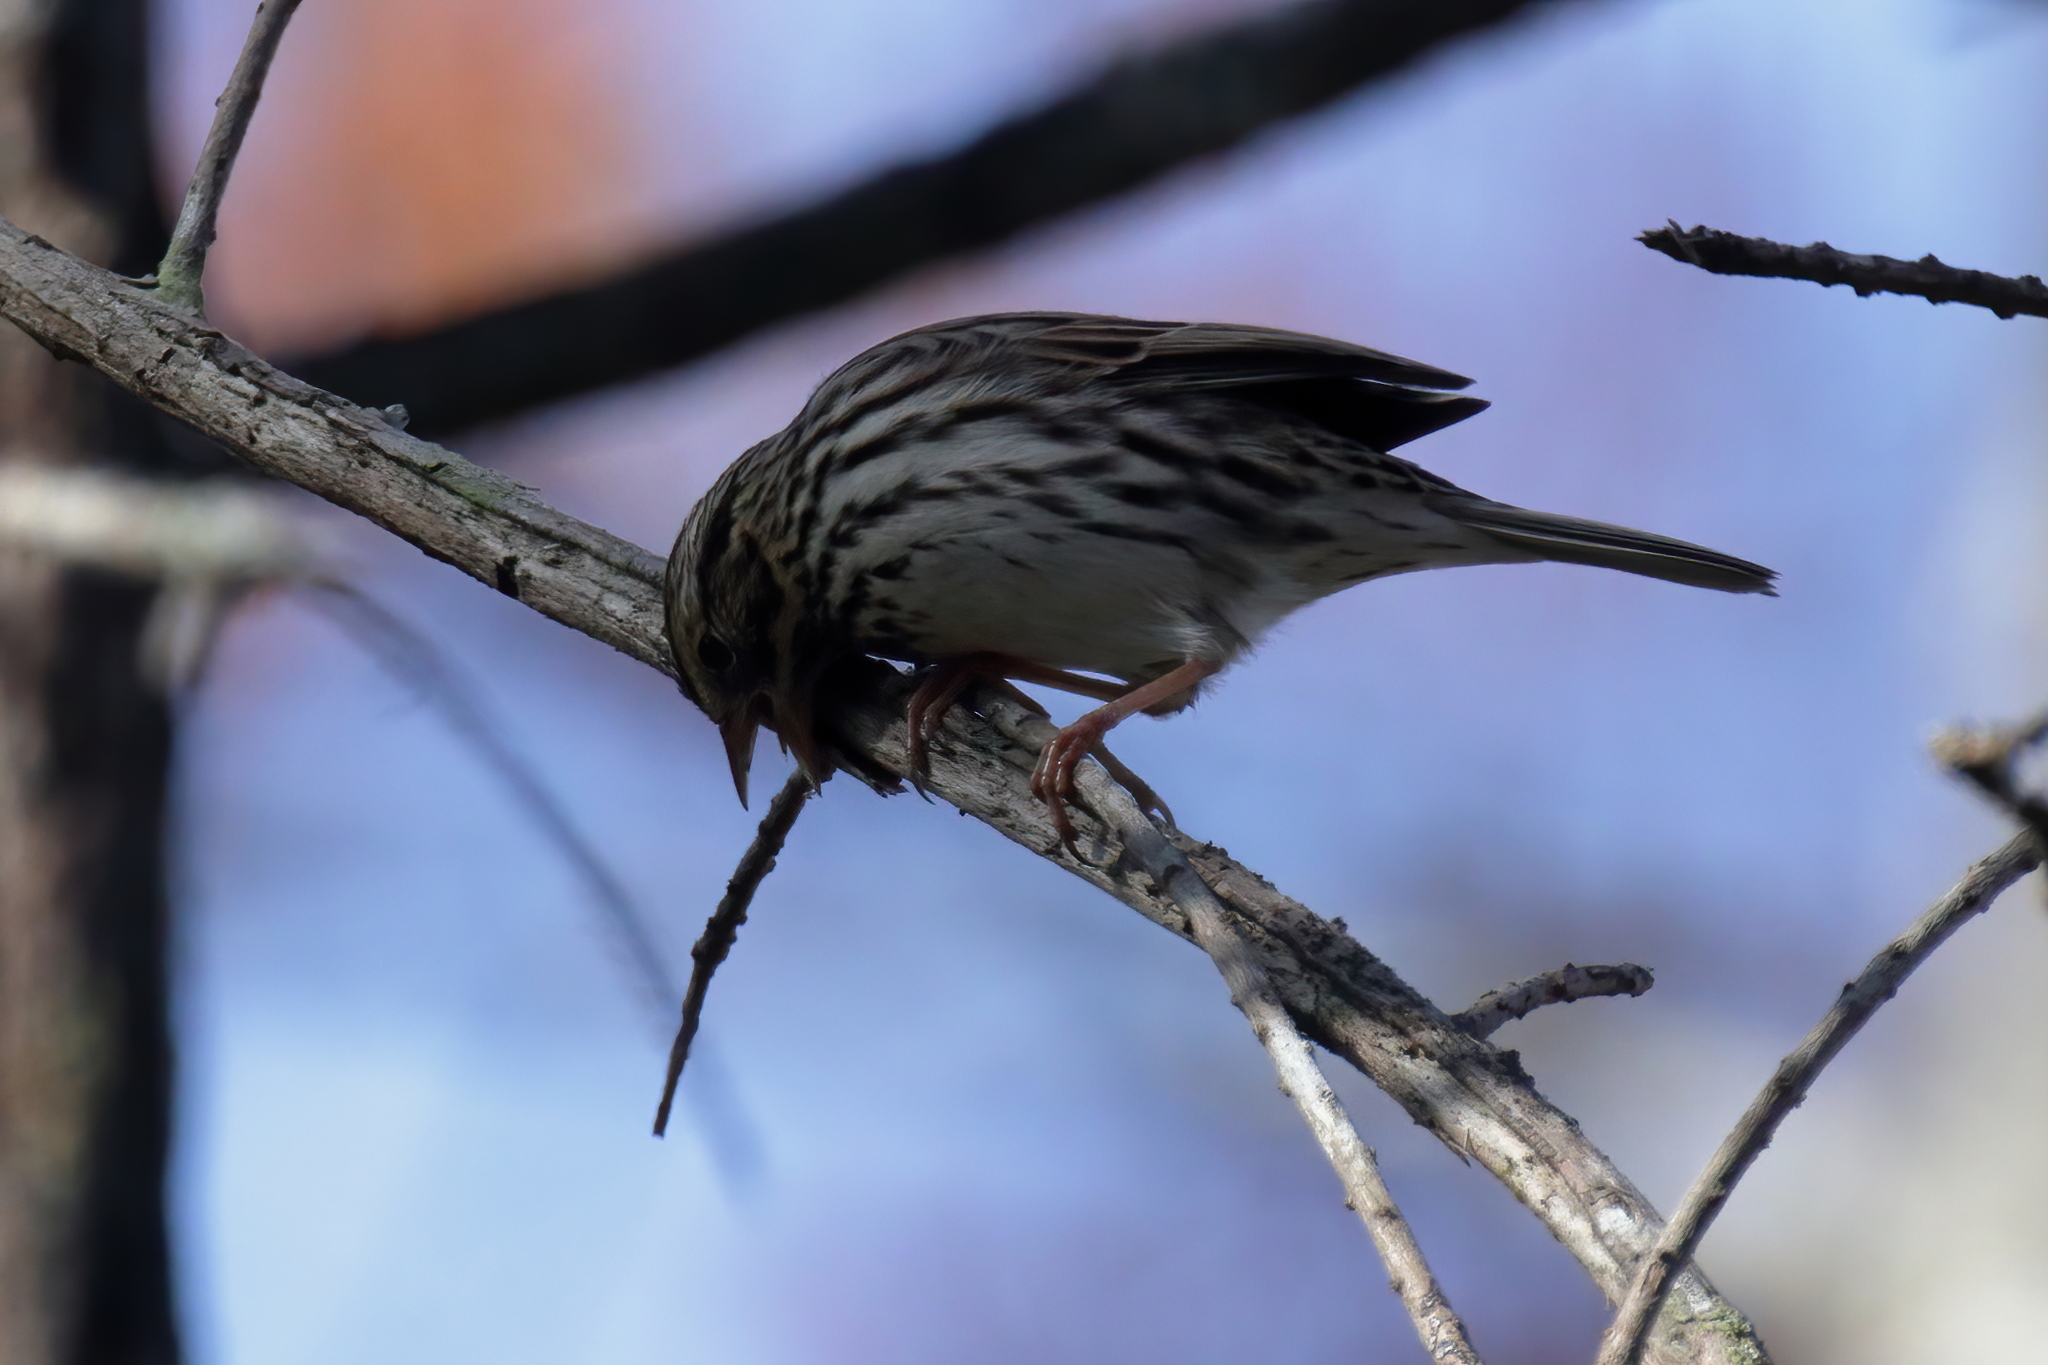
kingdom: Animalia
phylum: Chordata
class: Aves
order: Passeriformes
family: Passerellidae
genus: Passerculus
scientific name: Passerculus sandwichensis
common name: Savannah sparrow
